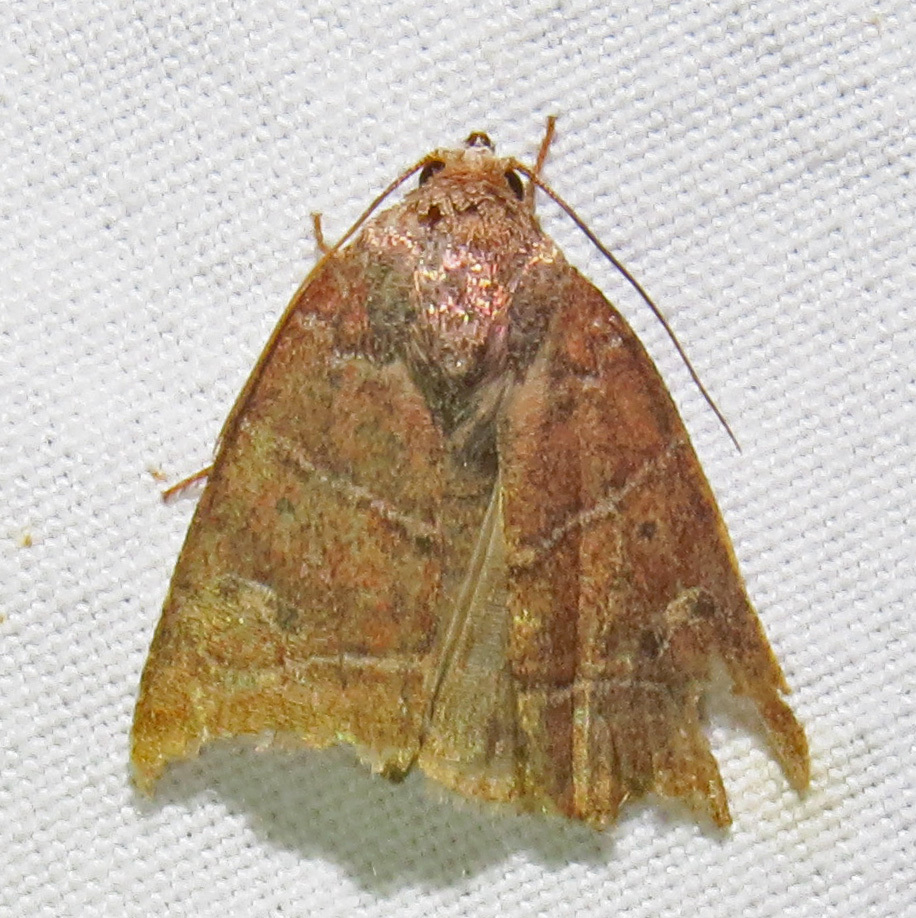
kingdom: Animalia
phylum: Arthropoda
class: Insecta
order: Lepidoptera
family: Noctuidae
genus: Elaphria
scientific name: Elaphria grata
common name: Grateful midget moth
